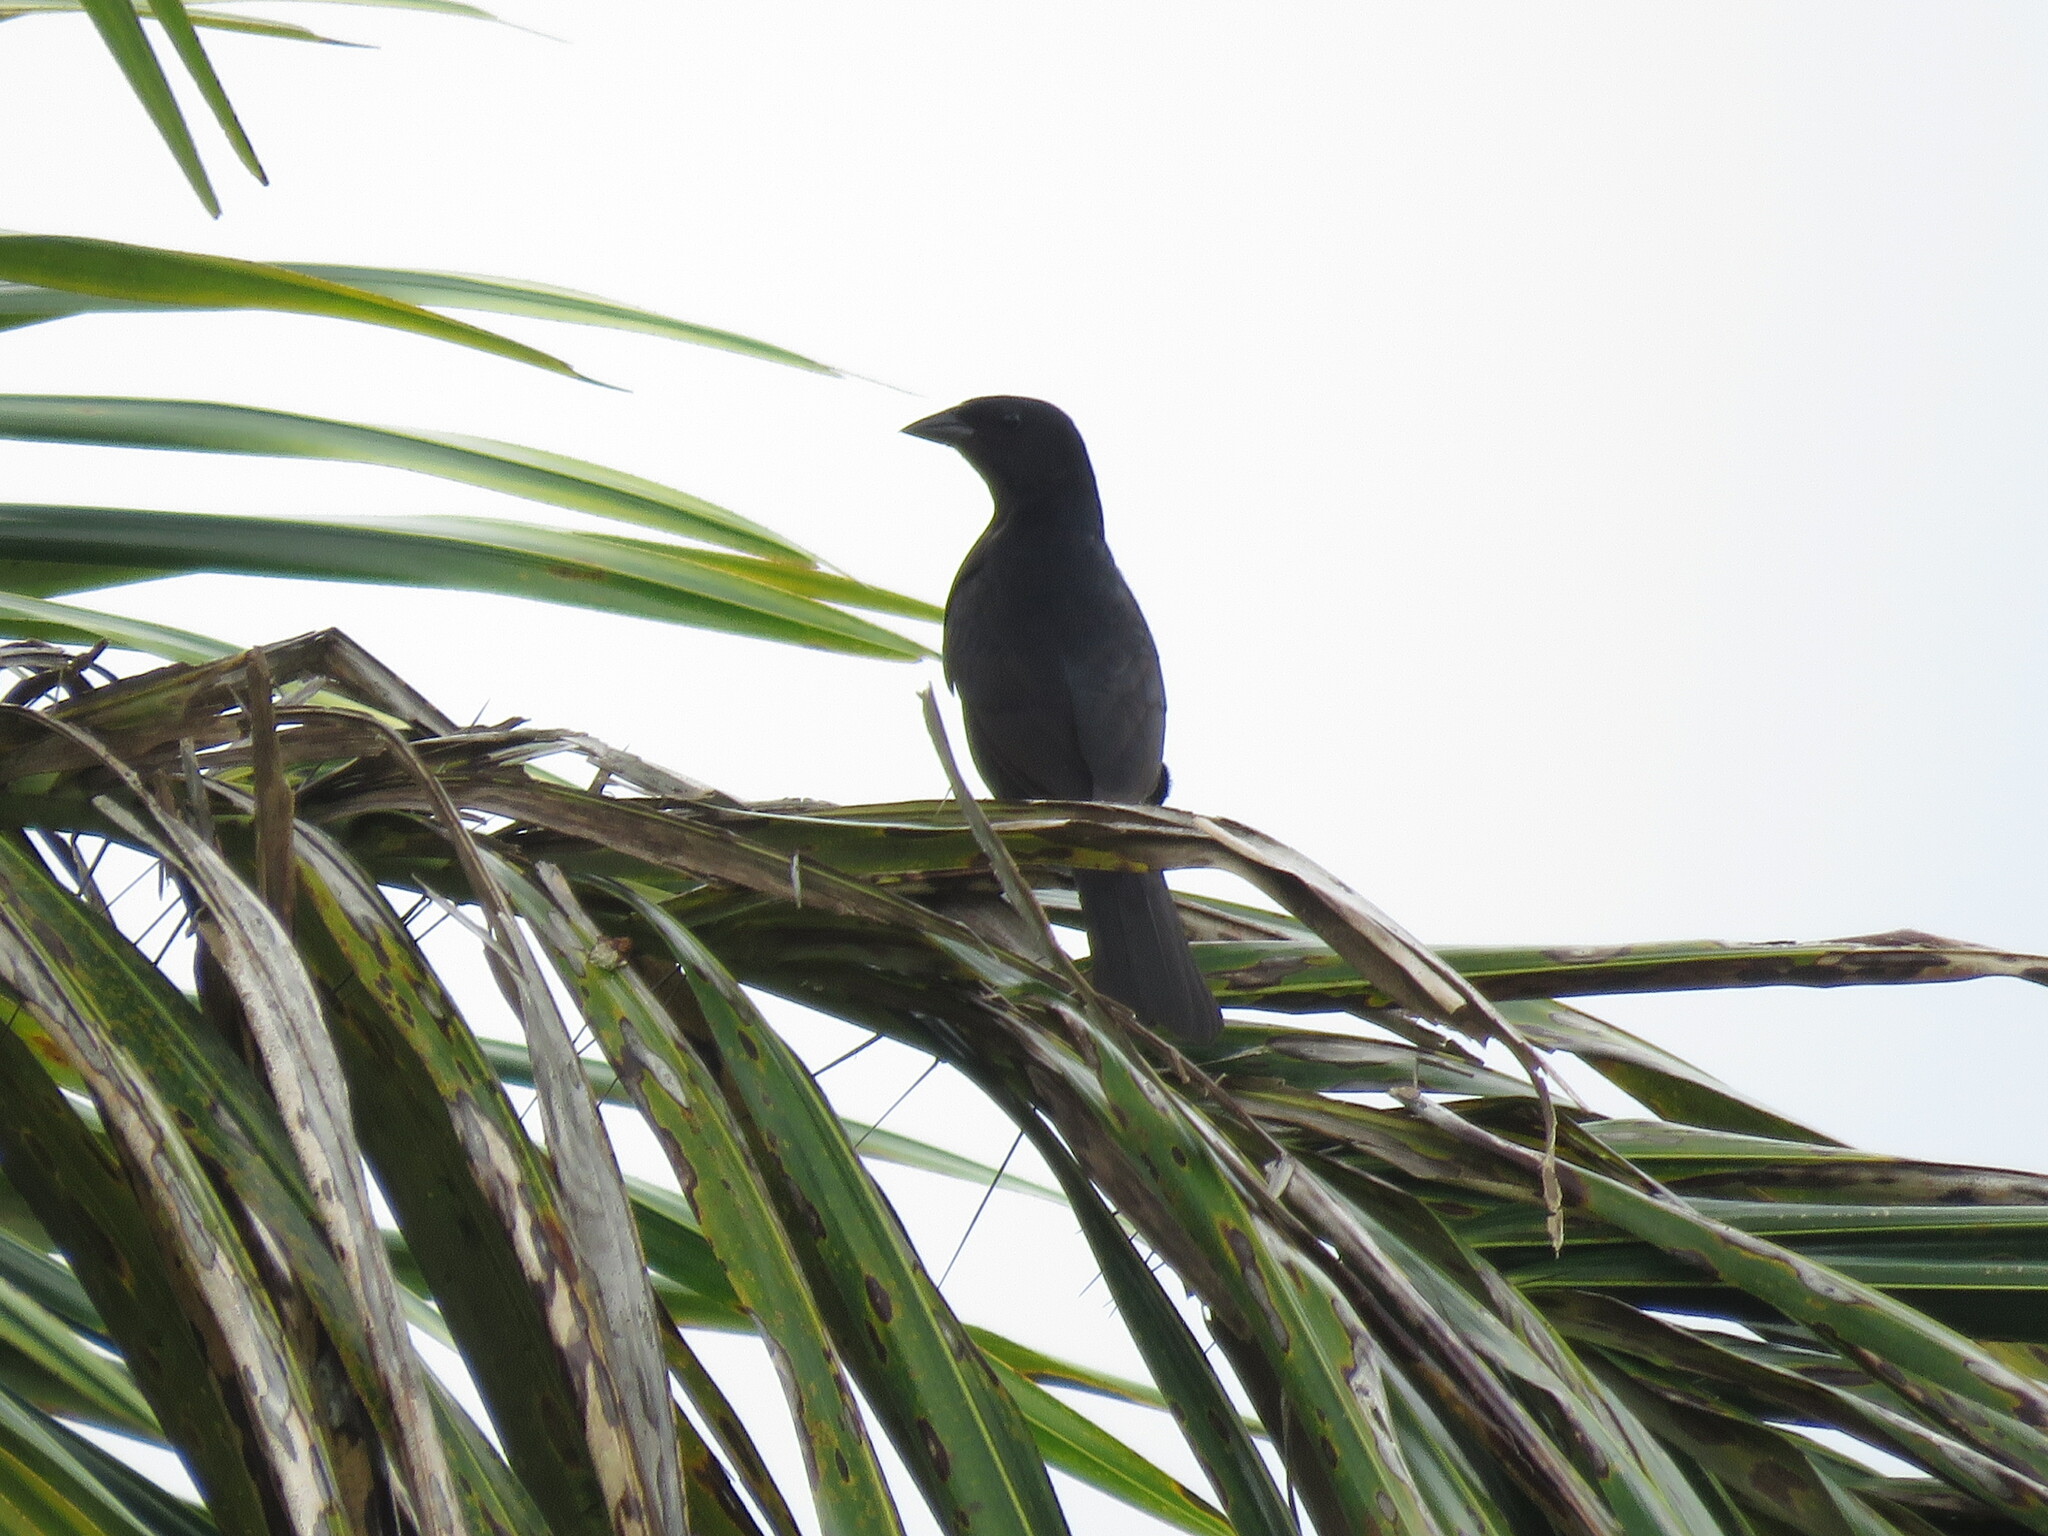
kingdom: Animalia
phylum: Chordata
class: Aves
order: Passeriformes
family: Icteridae
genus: Molothrus
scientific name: Molothrus bonariensis
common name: Shiny cowbird
